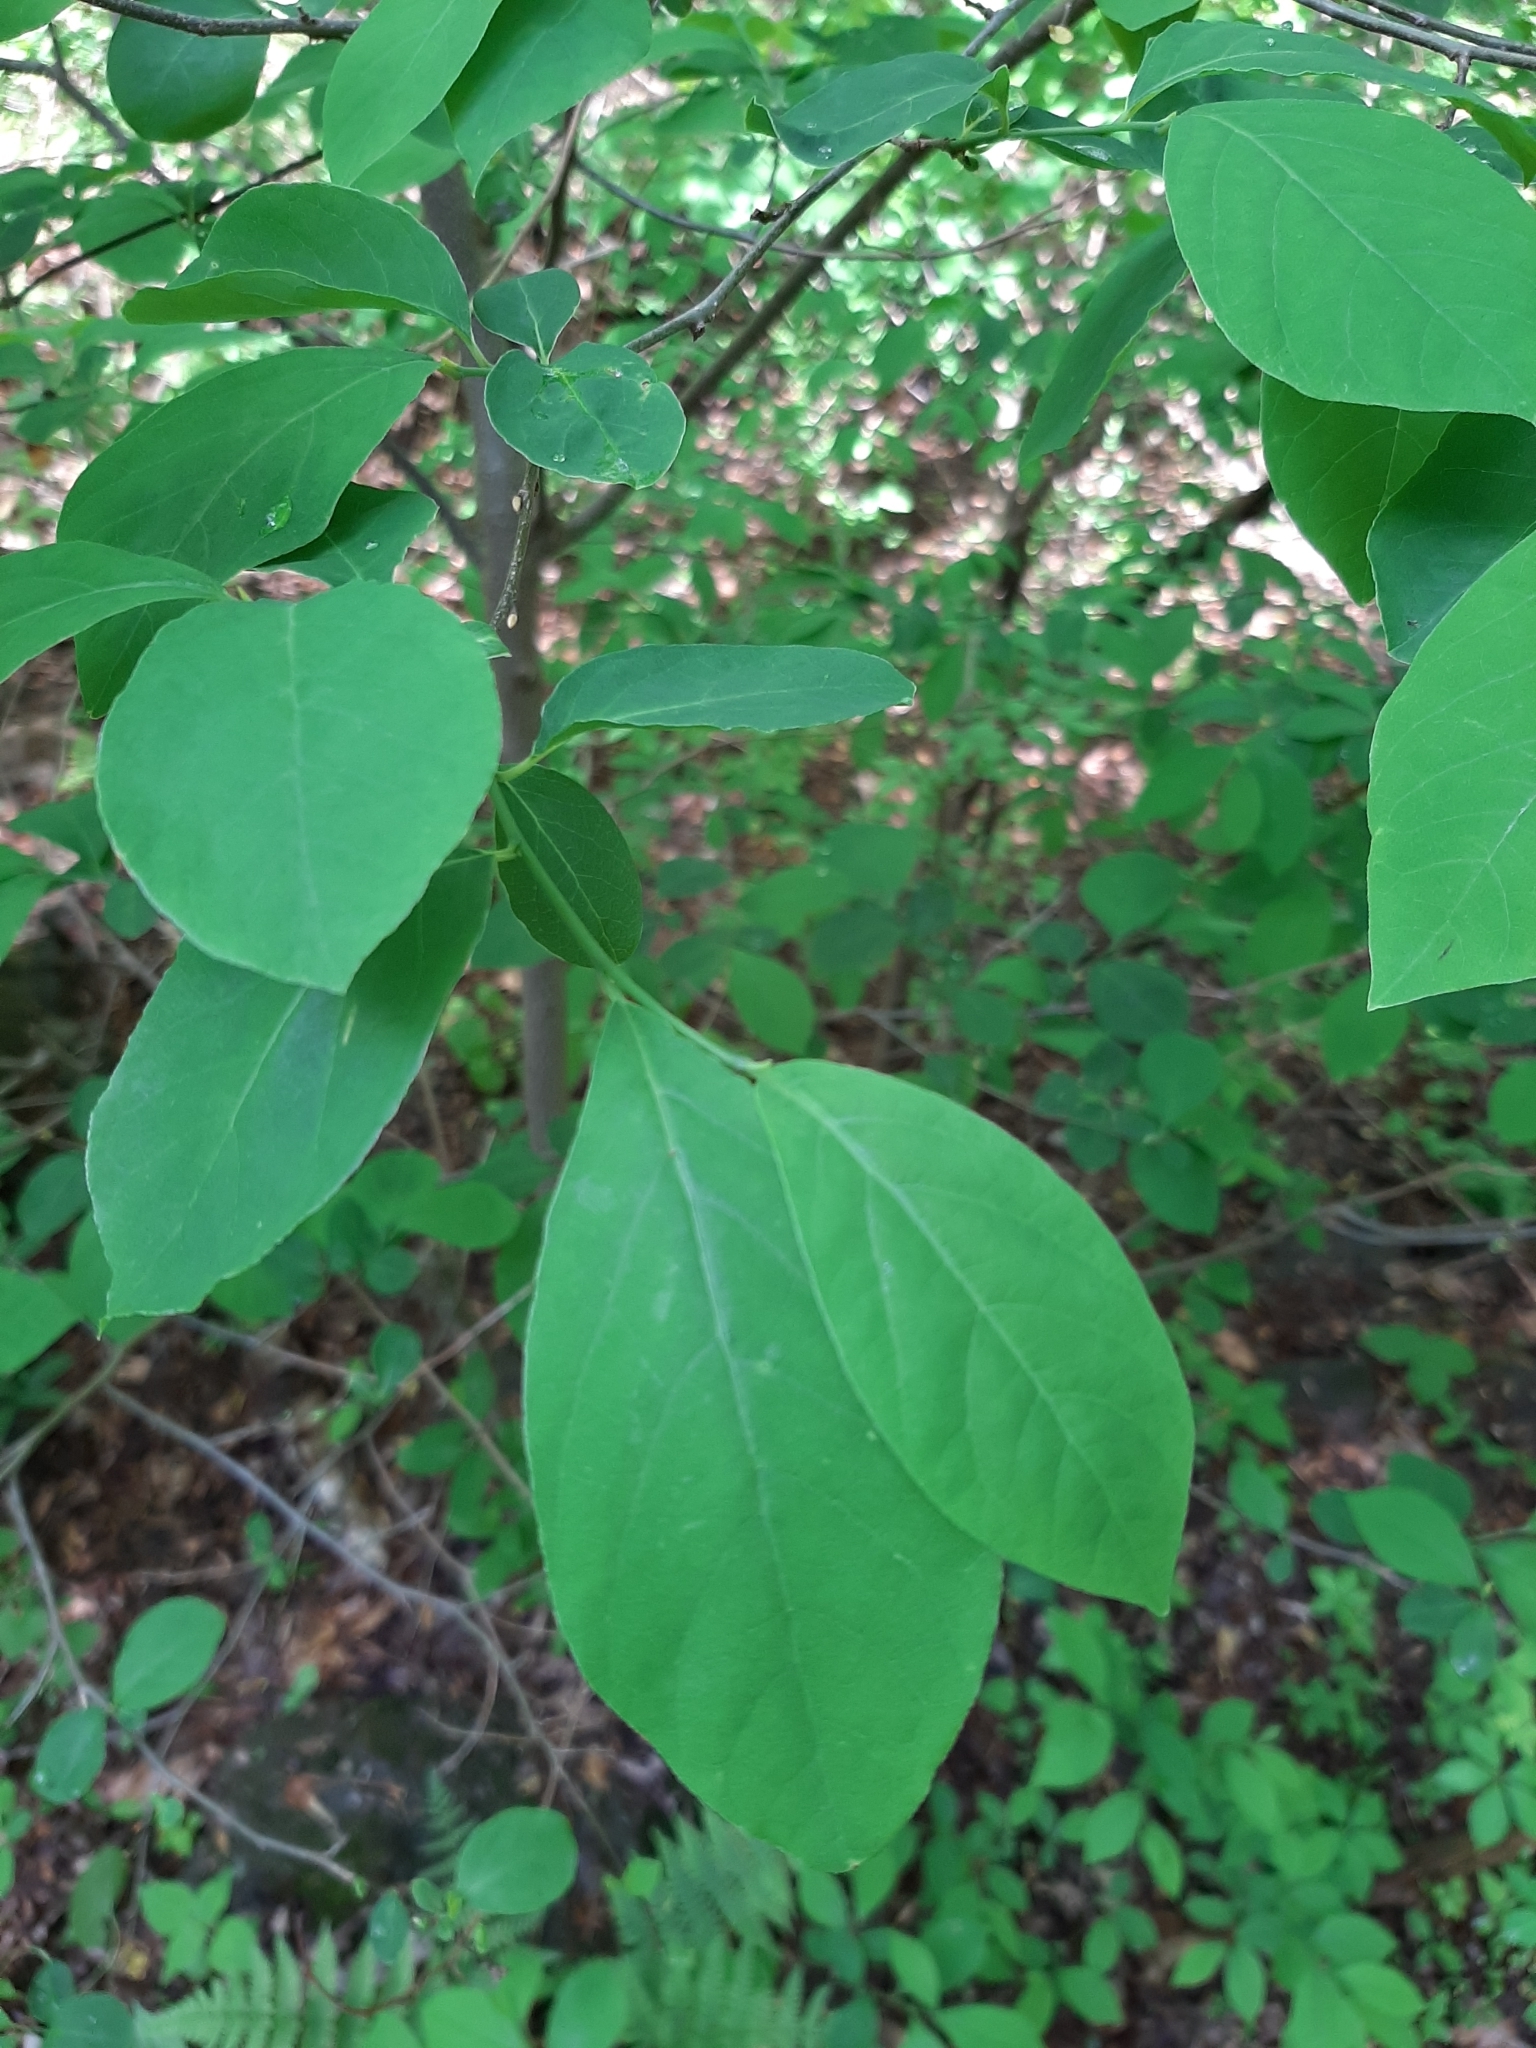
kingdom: Plantae
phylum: Tracheophyta
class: Magnoliopsida
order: Laurales
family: Lauraceae
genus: Lindera
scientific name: Lindera benzoin
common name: Spicebush
